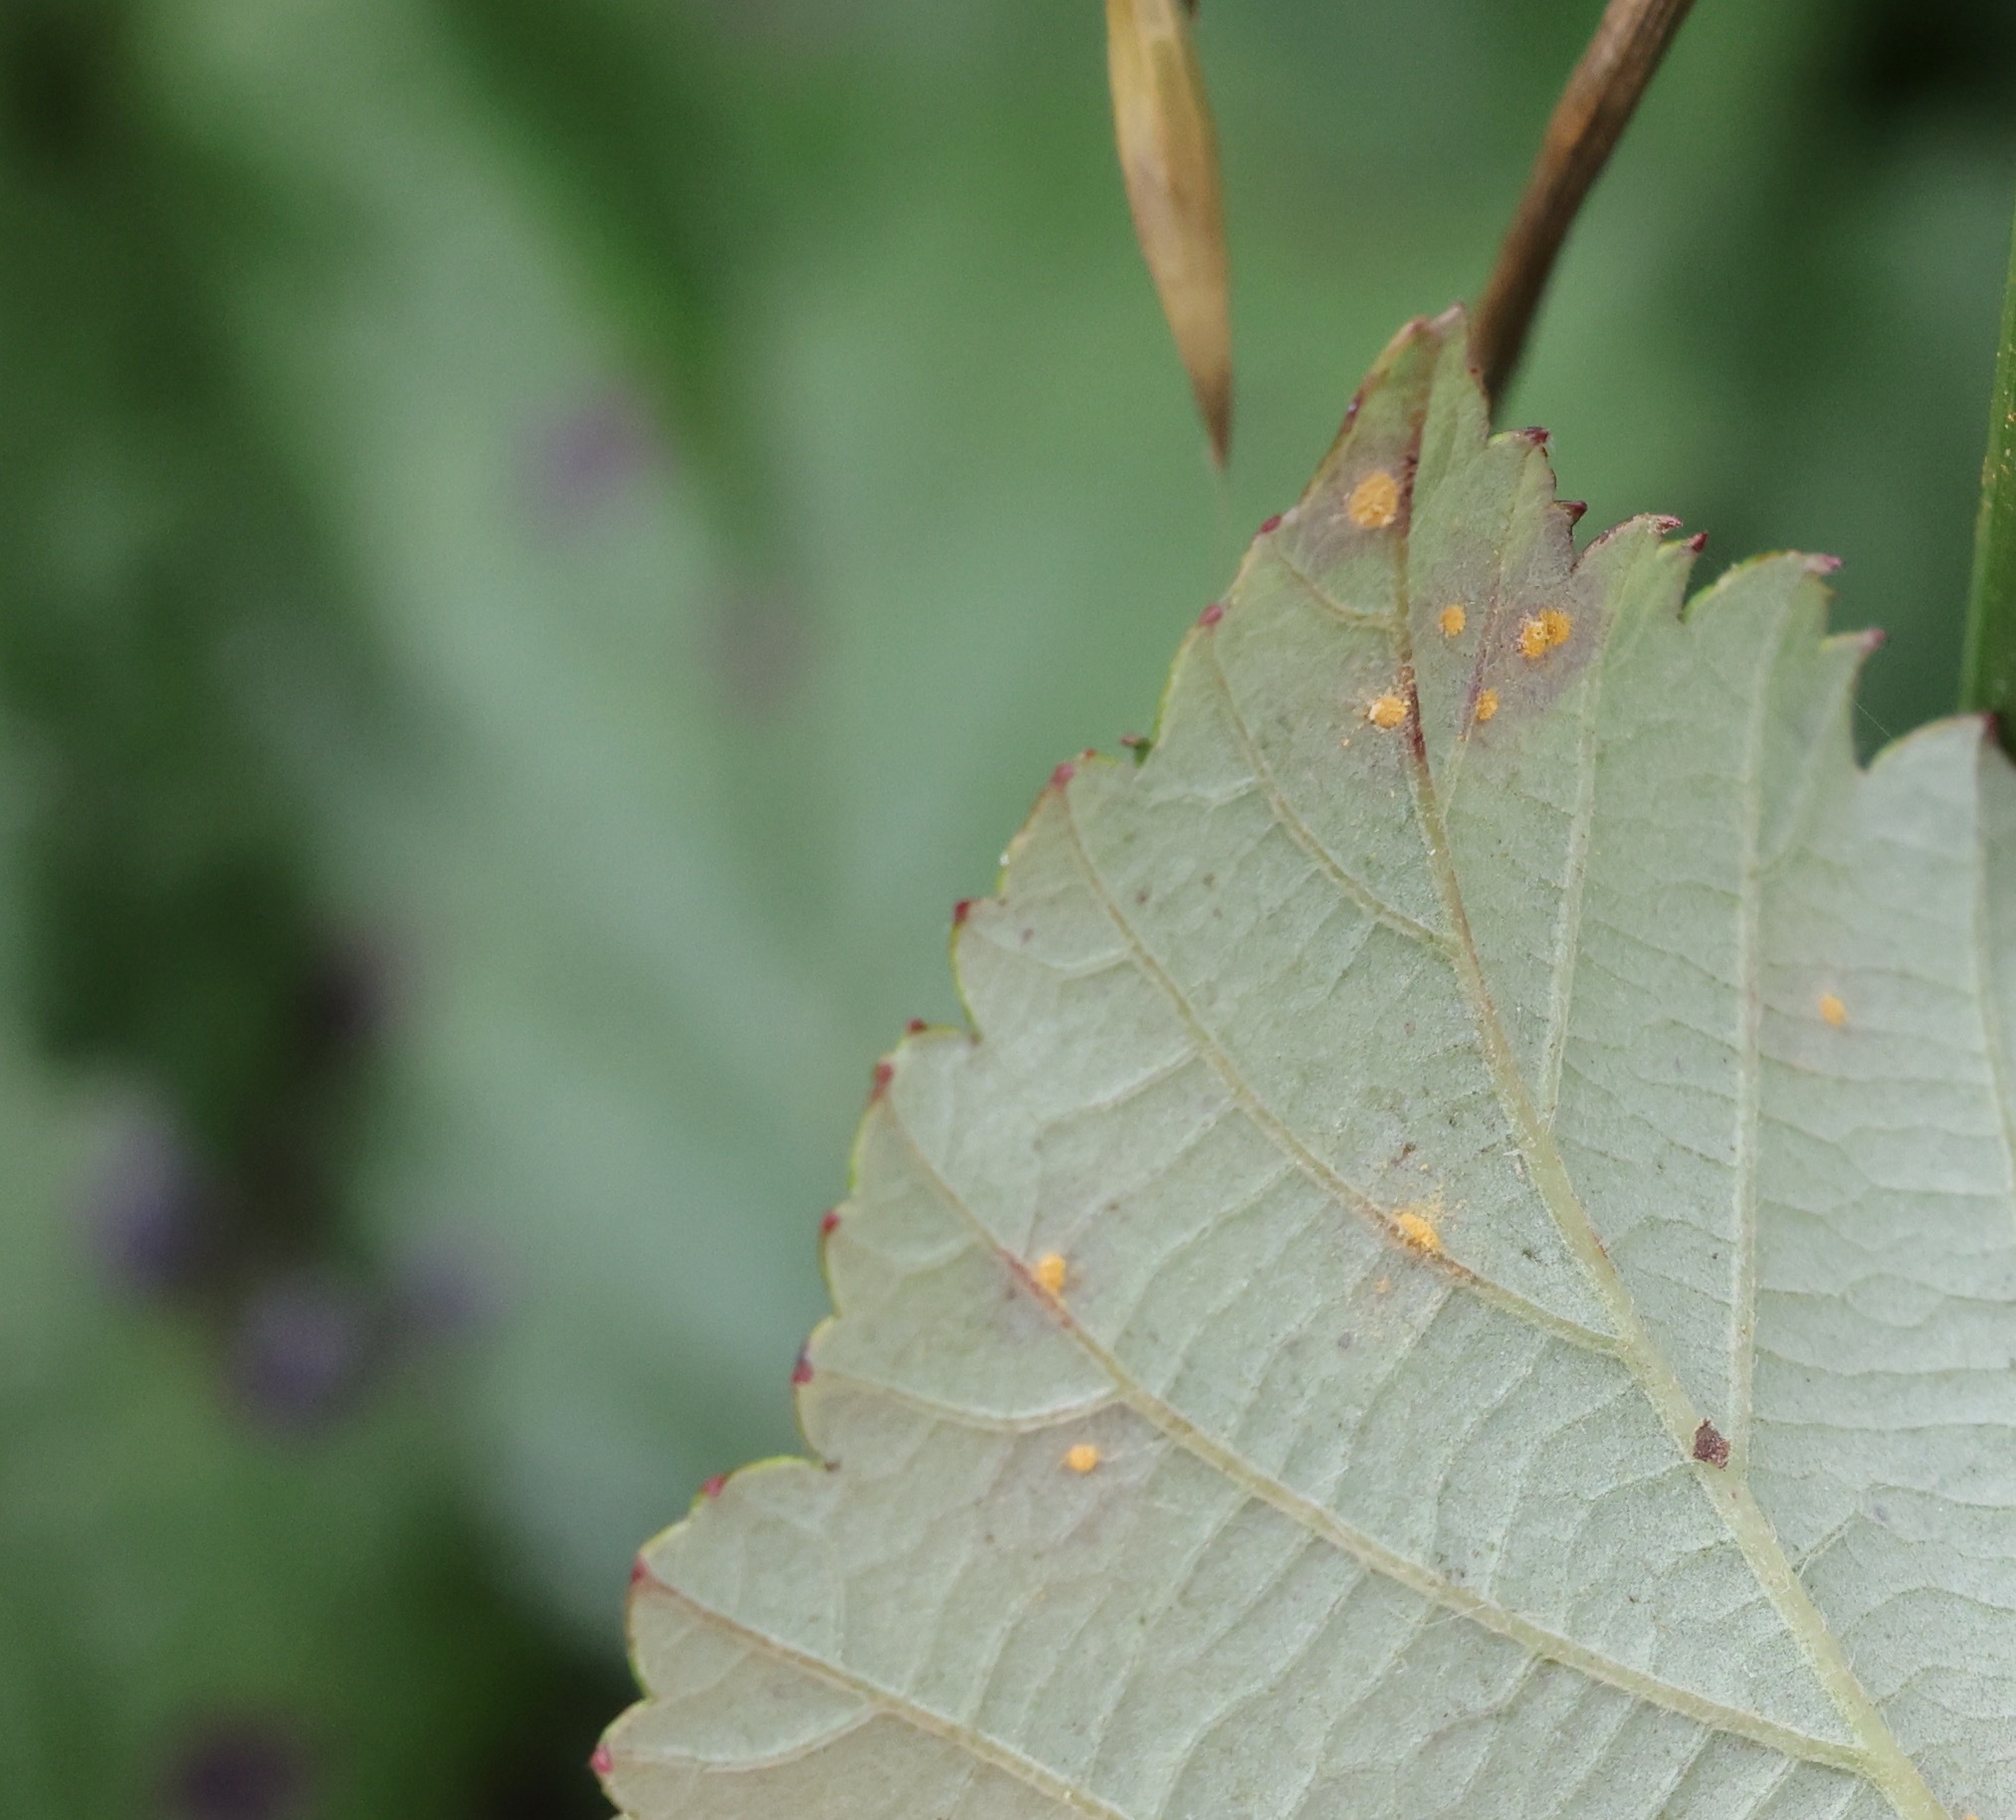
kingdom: Fungi
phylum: Basidiomycota
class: Pucciniomycetes
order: Pucciniales
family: Phragmidiaceae
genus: Phragmidium
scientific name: Phragmidium violaceum
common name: Violet bramble rust
